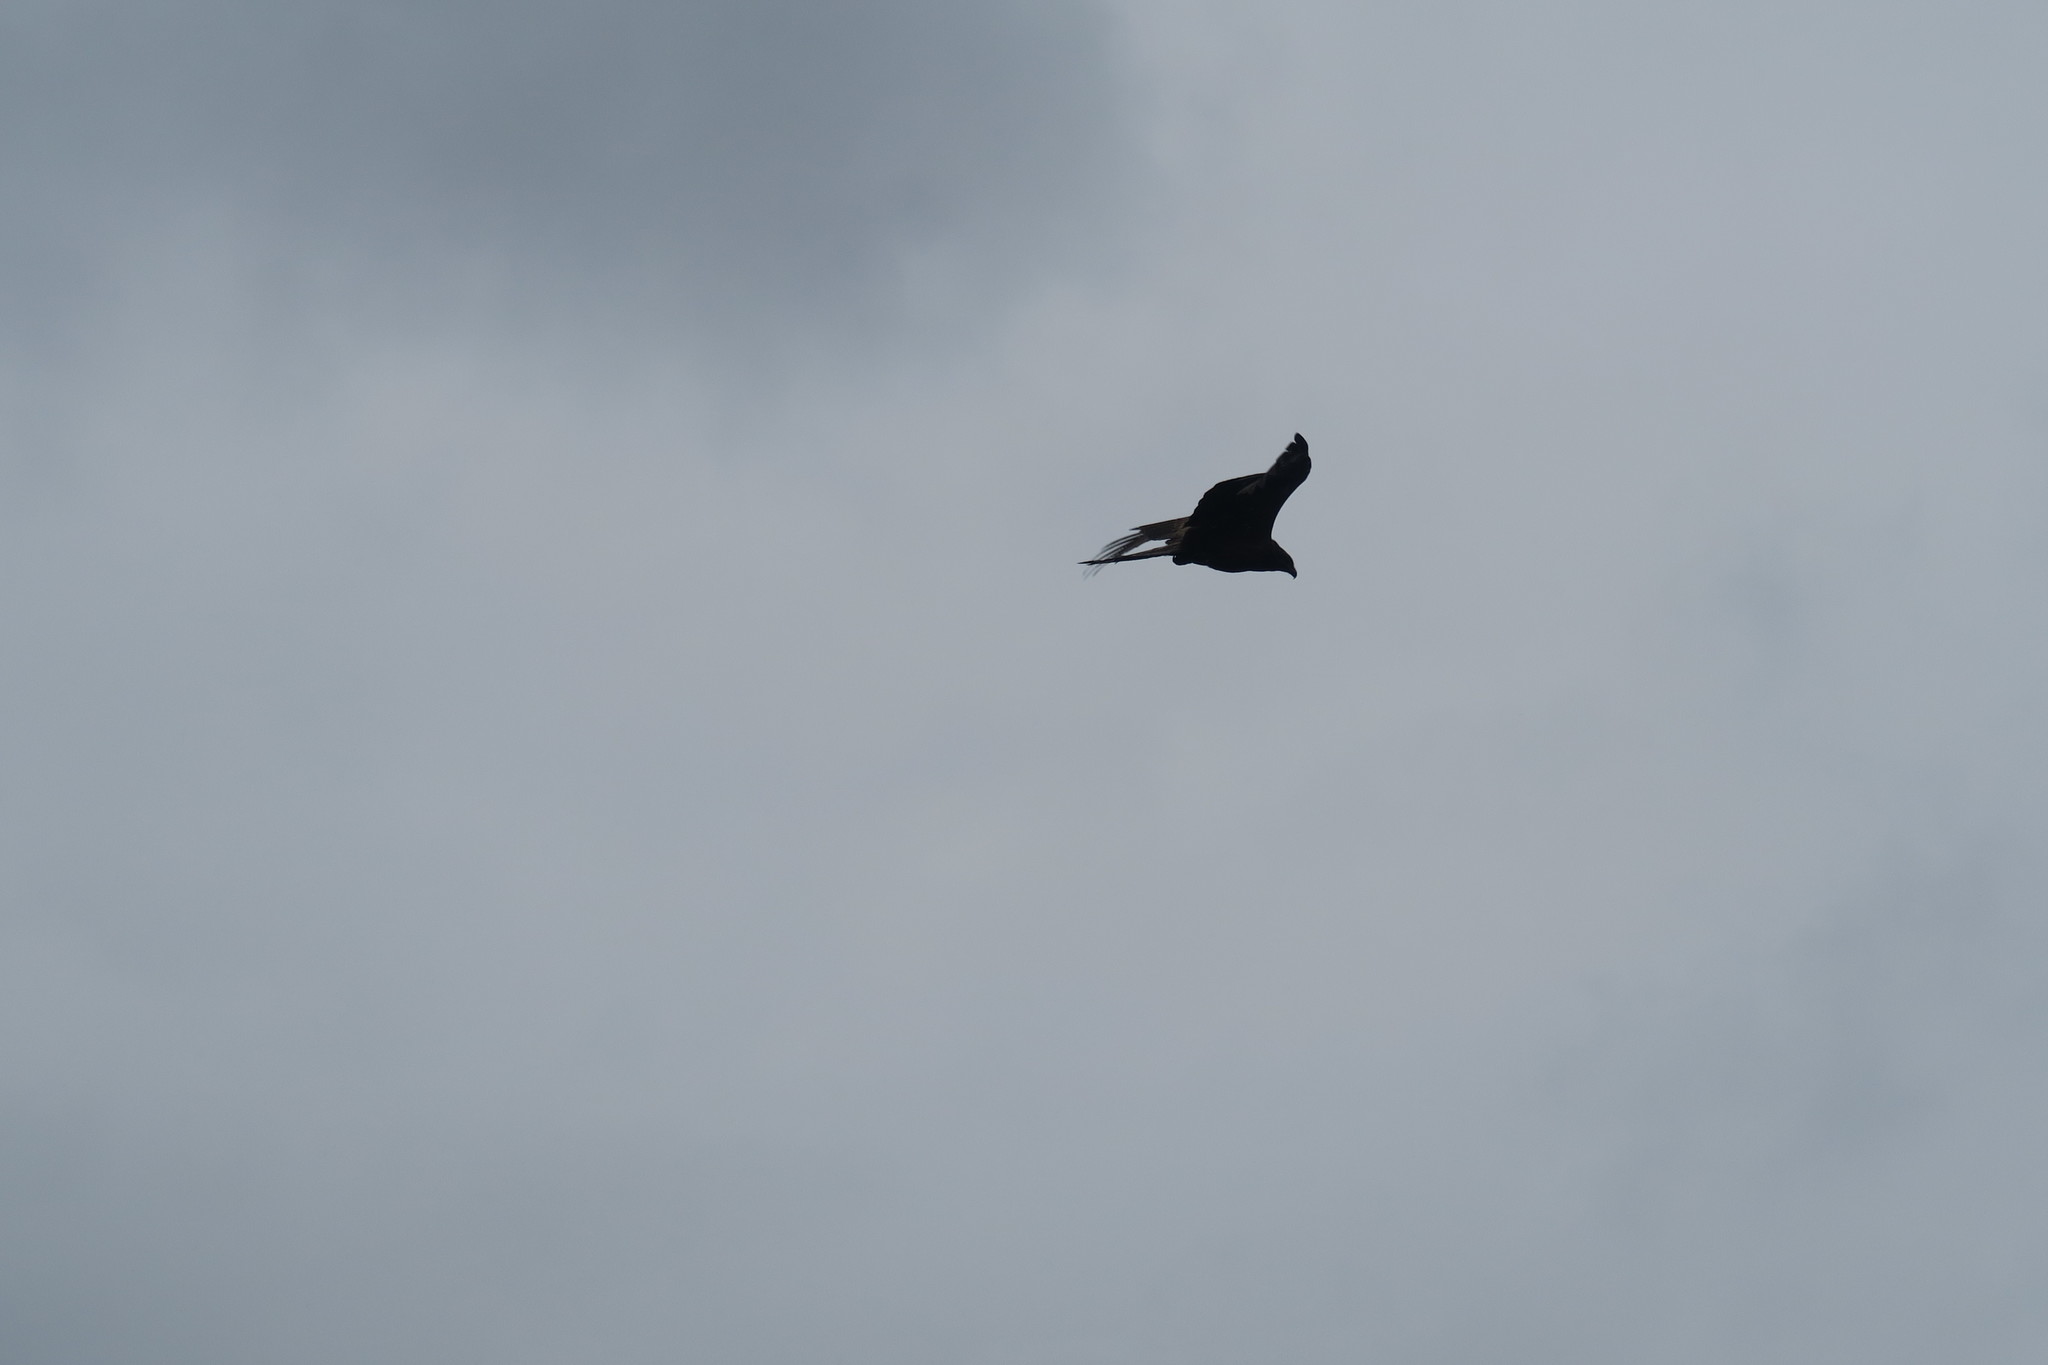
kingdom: Animalia
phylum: Chordata
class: Aves
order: Accipitriformes
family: Accipitridae
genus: Milvus
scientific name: Milvus migrans
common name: Black kite
